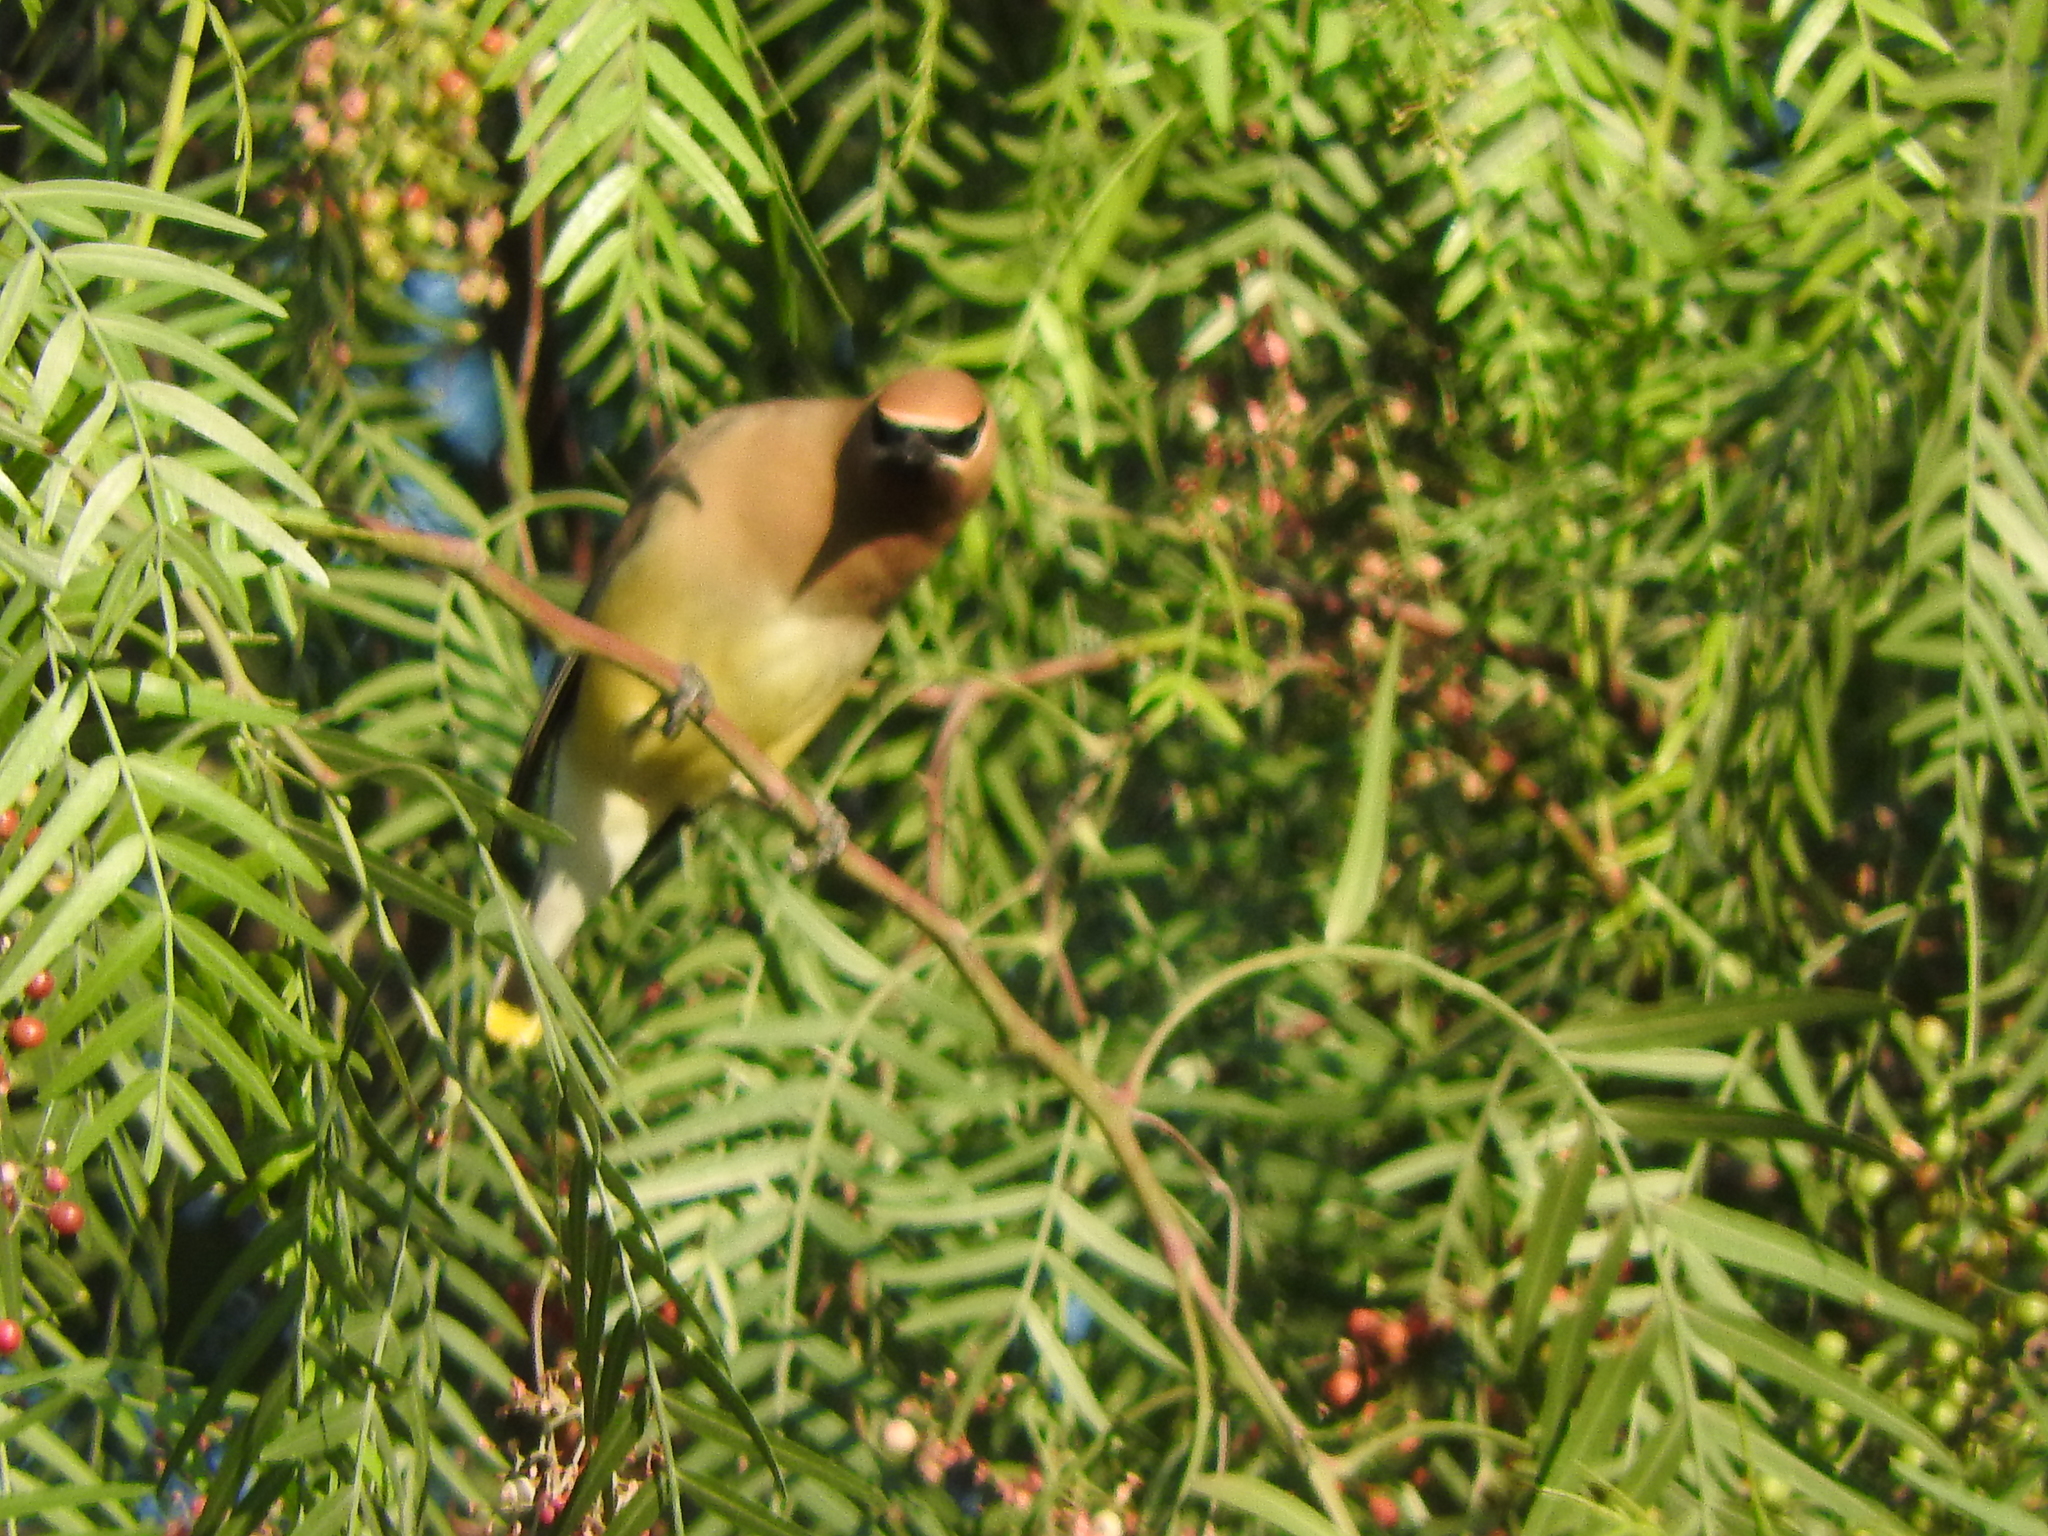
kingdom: Animalia
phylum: Chordata
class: Aves
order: Passeriformes
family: Bombycillidae
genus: Bombycilla
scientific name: Bombycilla cedrorum
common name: Cedar waxwing
